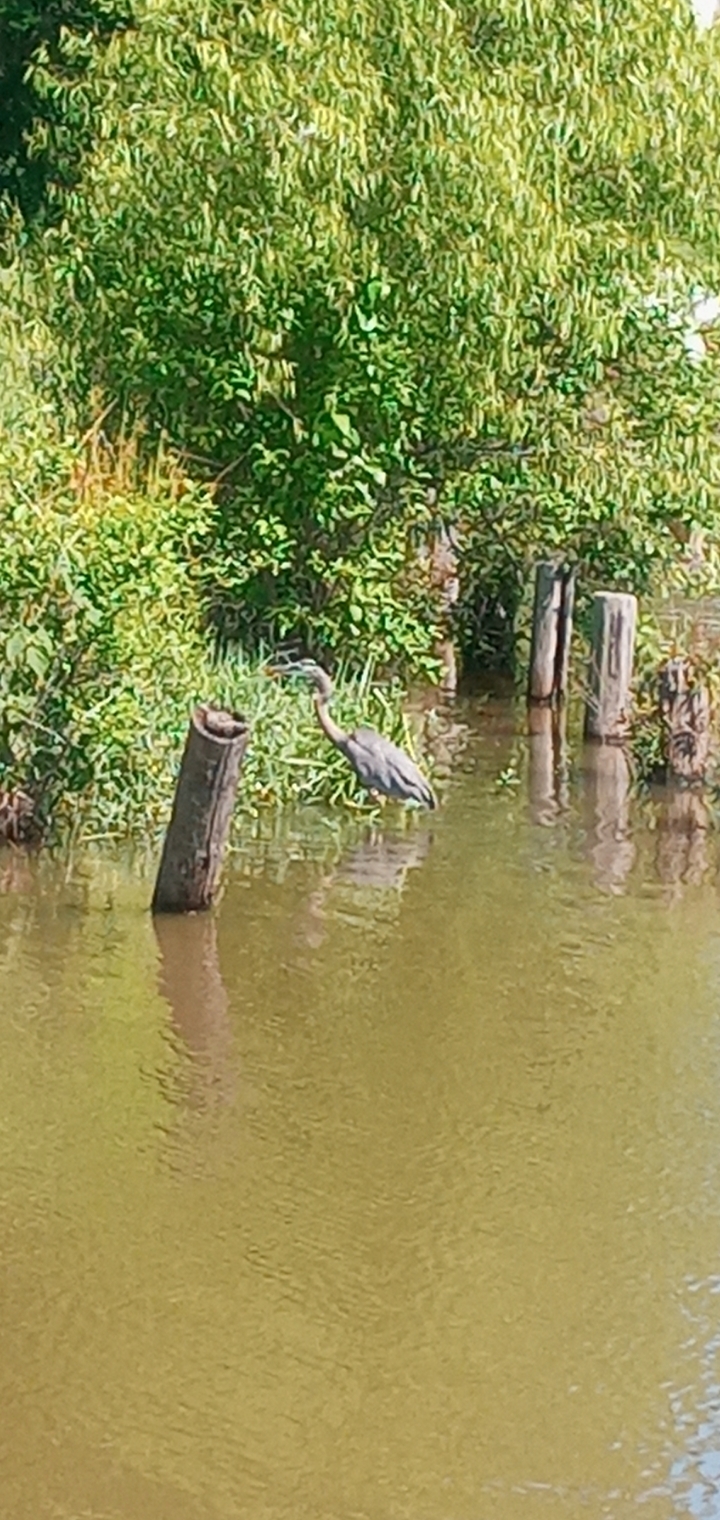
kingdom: Animalia
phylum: Chordata
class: Aves
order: Pelecaniformes
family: Ardeidae
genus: Ardea
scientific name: Ardea herodias
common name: Great blue heron
